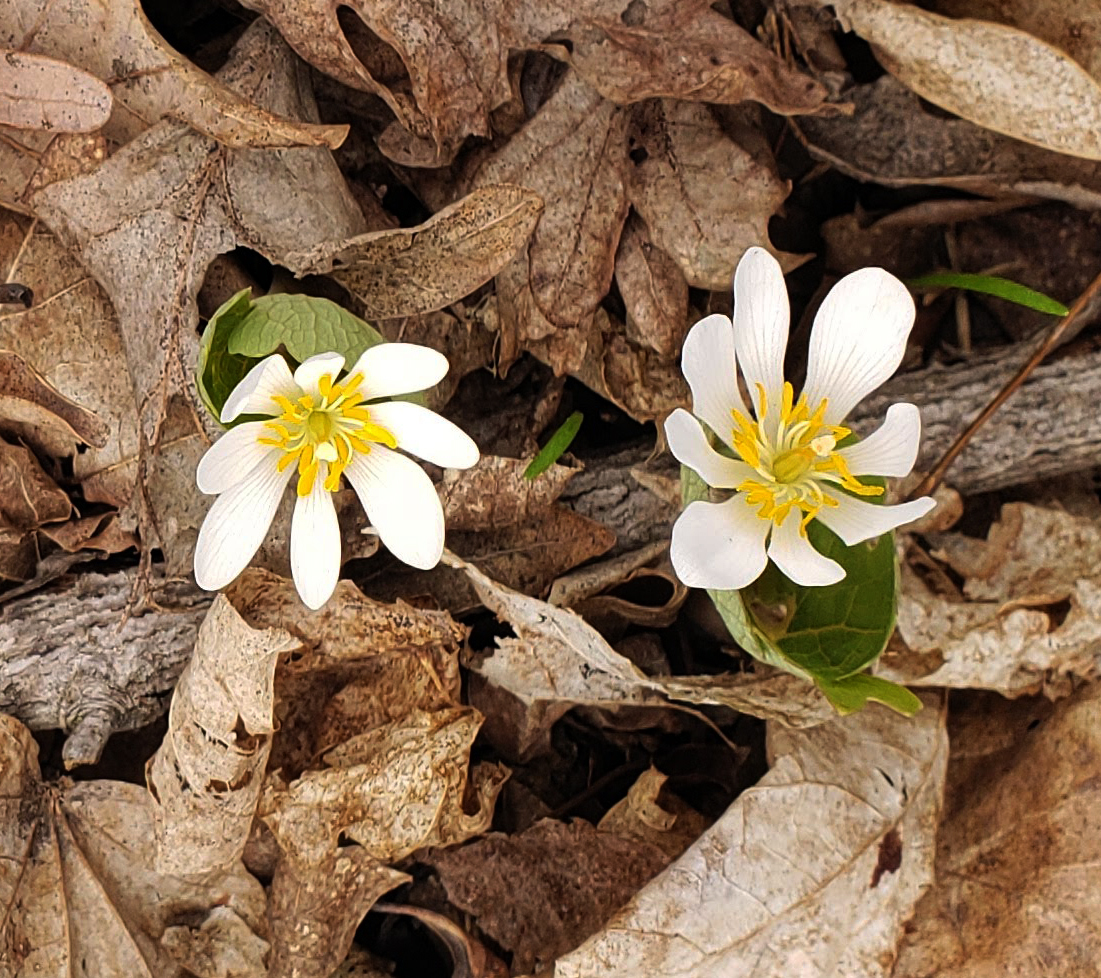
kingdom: Plantae
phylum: Tracheophyta
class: Magnoliopsida
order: Ranunculales
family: Papaveraceae
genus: Sanguinaria
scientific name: Sanguinaria canadensis
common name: Bloodroot
